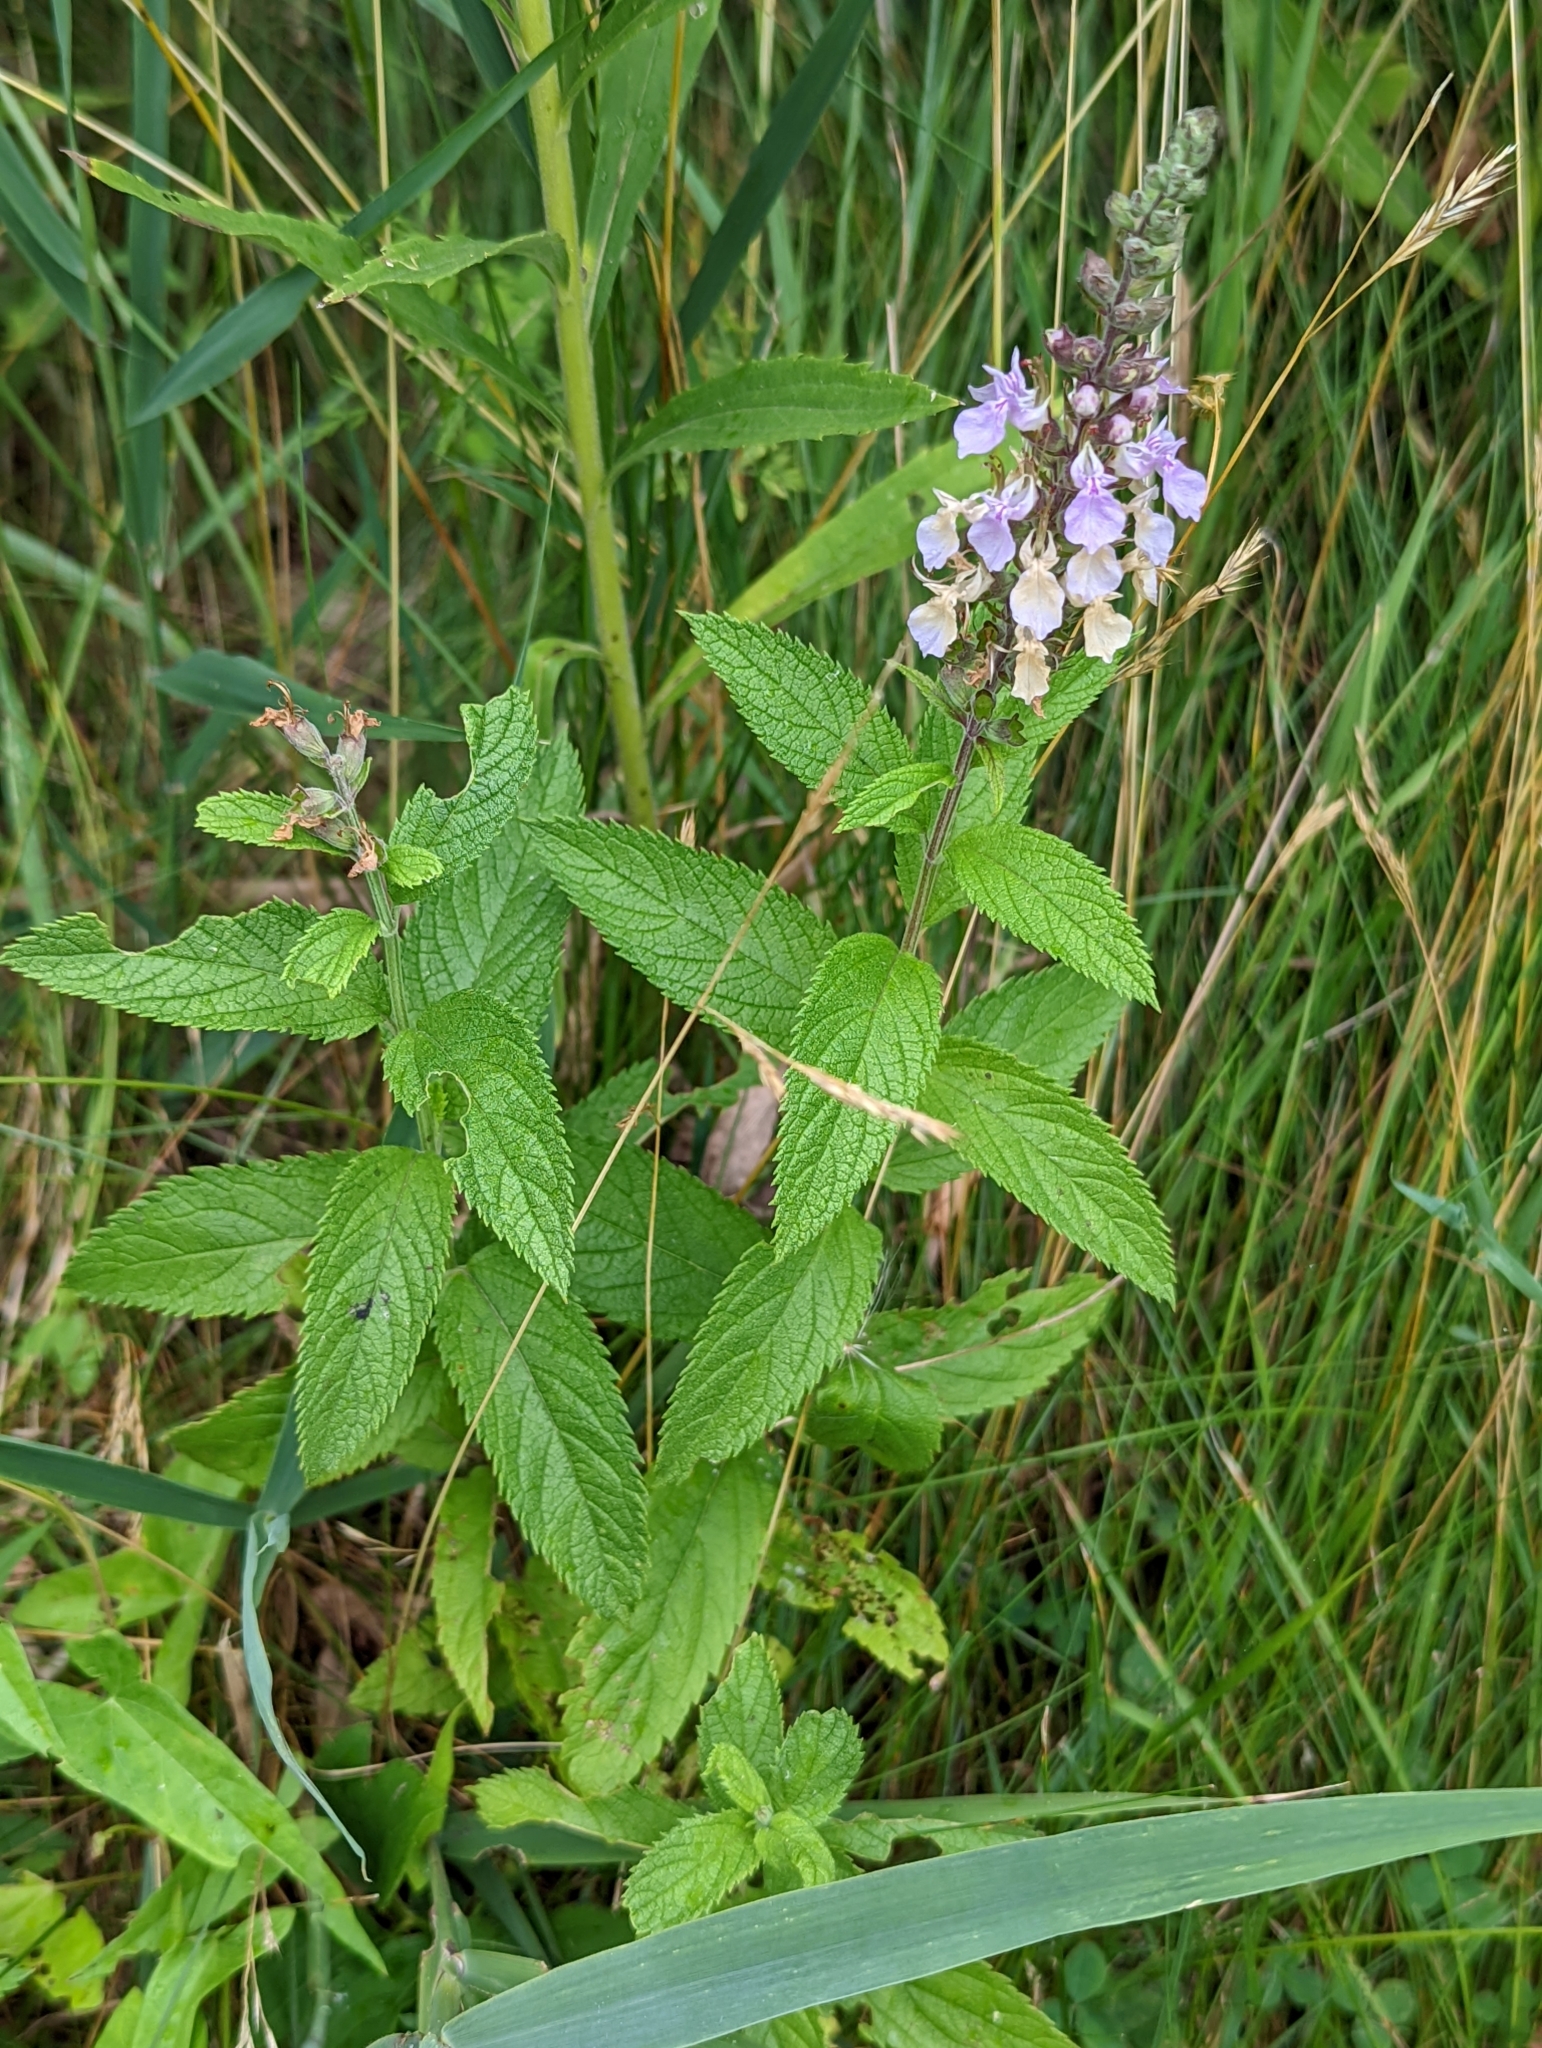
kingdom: Plantae
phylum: Tracheophyta
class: Magnoliopsida
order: Lamiales
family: Lamiaceae
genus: Teucrium
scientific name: Teucrium canadense
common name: American germander
